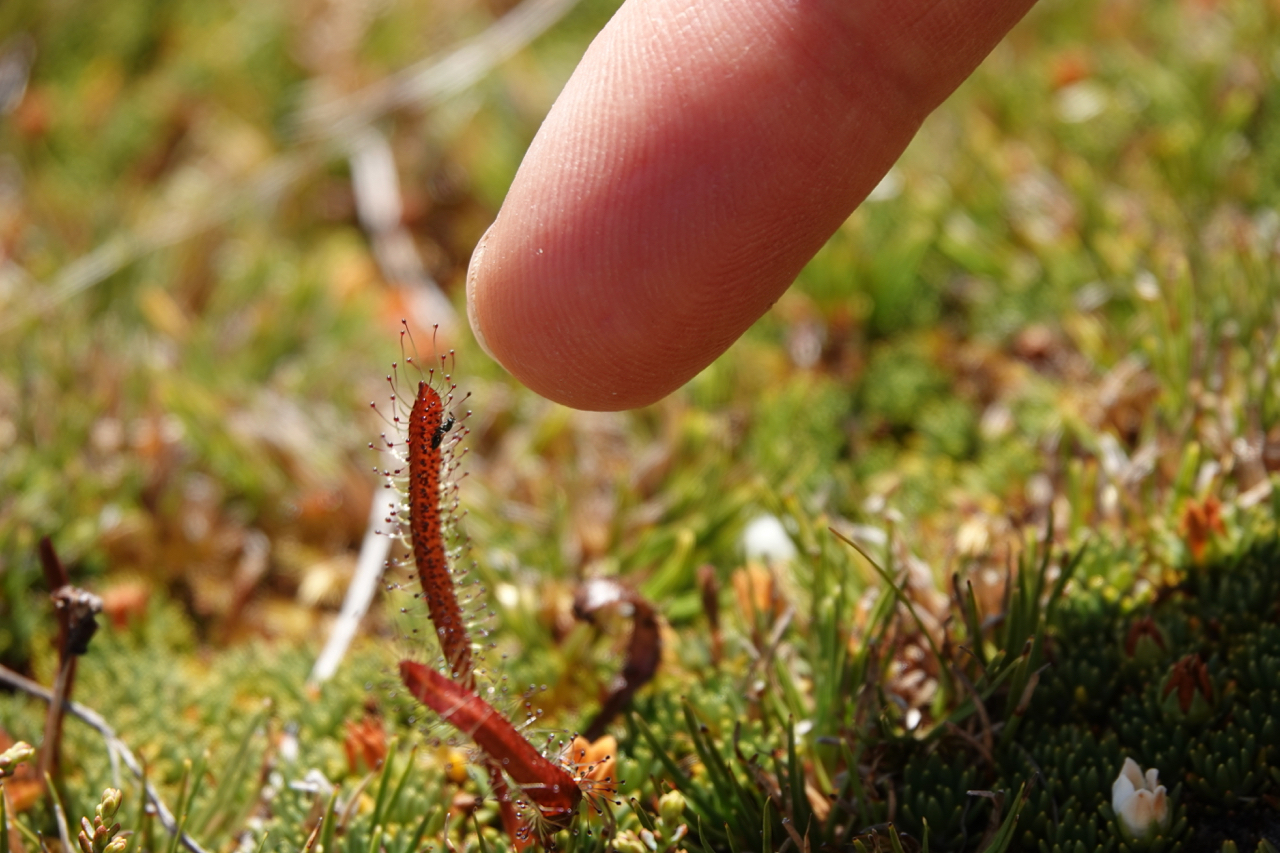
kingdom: Plantae
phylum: Tracheophyta
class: Magnoliopsida
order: Caryophyllales
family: Droseraceae
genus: Drosera
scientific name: Drosera arcturi
